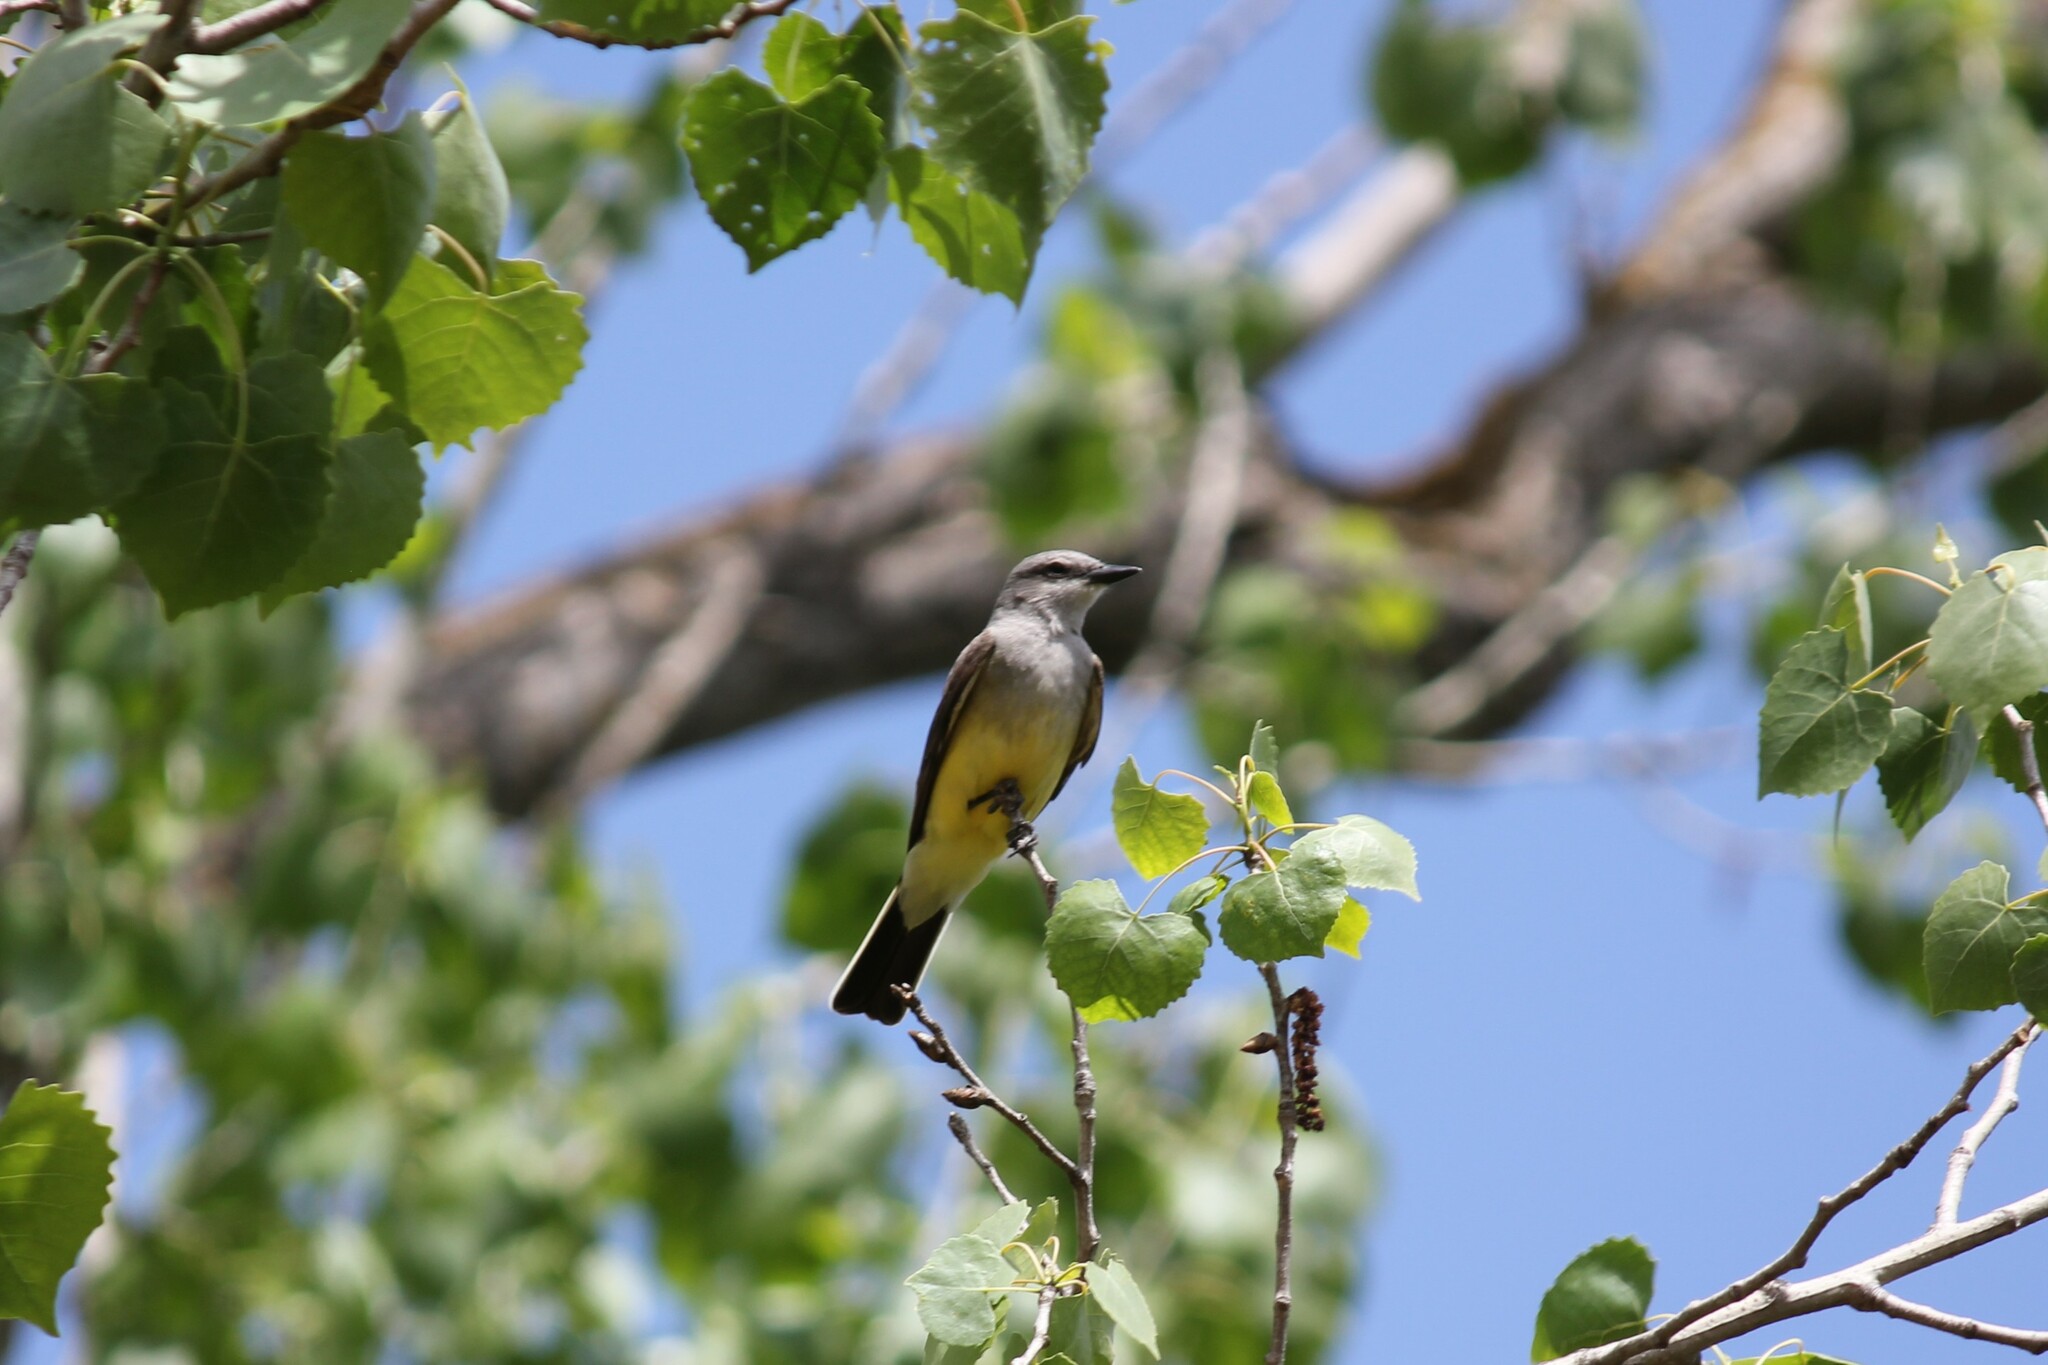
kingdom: Animalia
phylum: Chordata
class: Aves
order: Passeriformes
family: Tyrannidae
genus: Tyrannus
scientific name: Tyrannus verticalis
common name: Western kingbird
